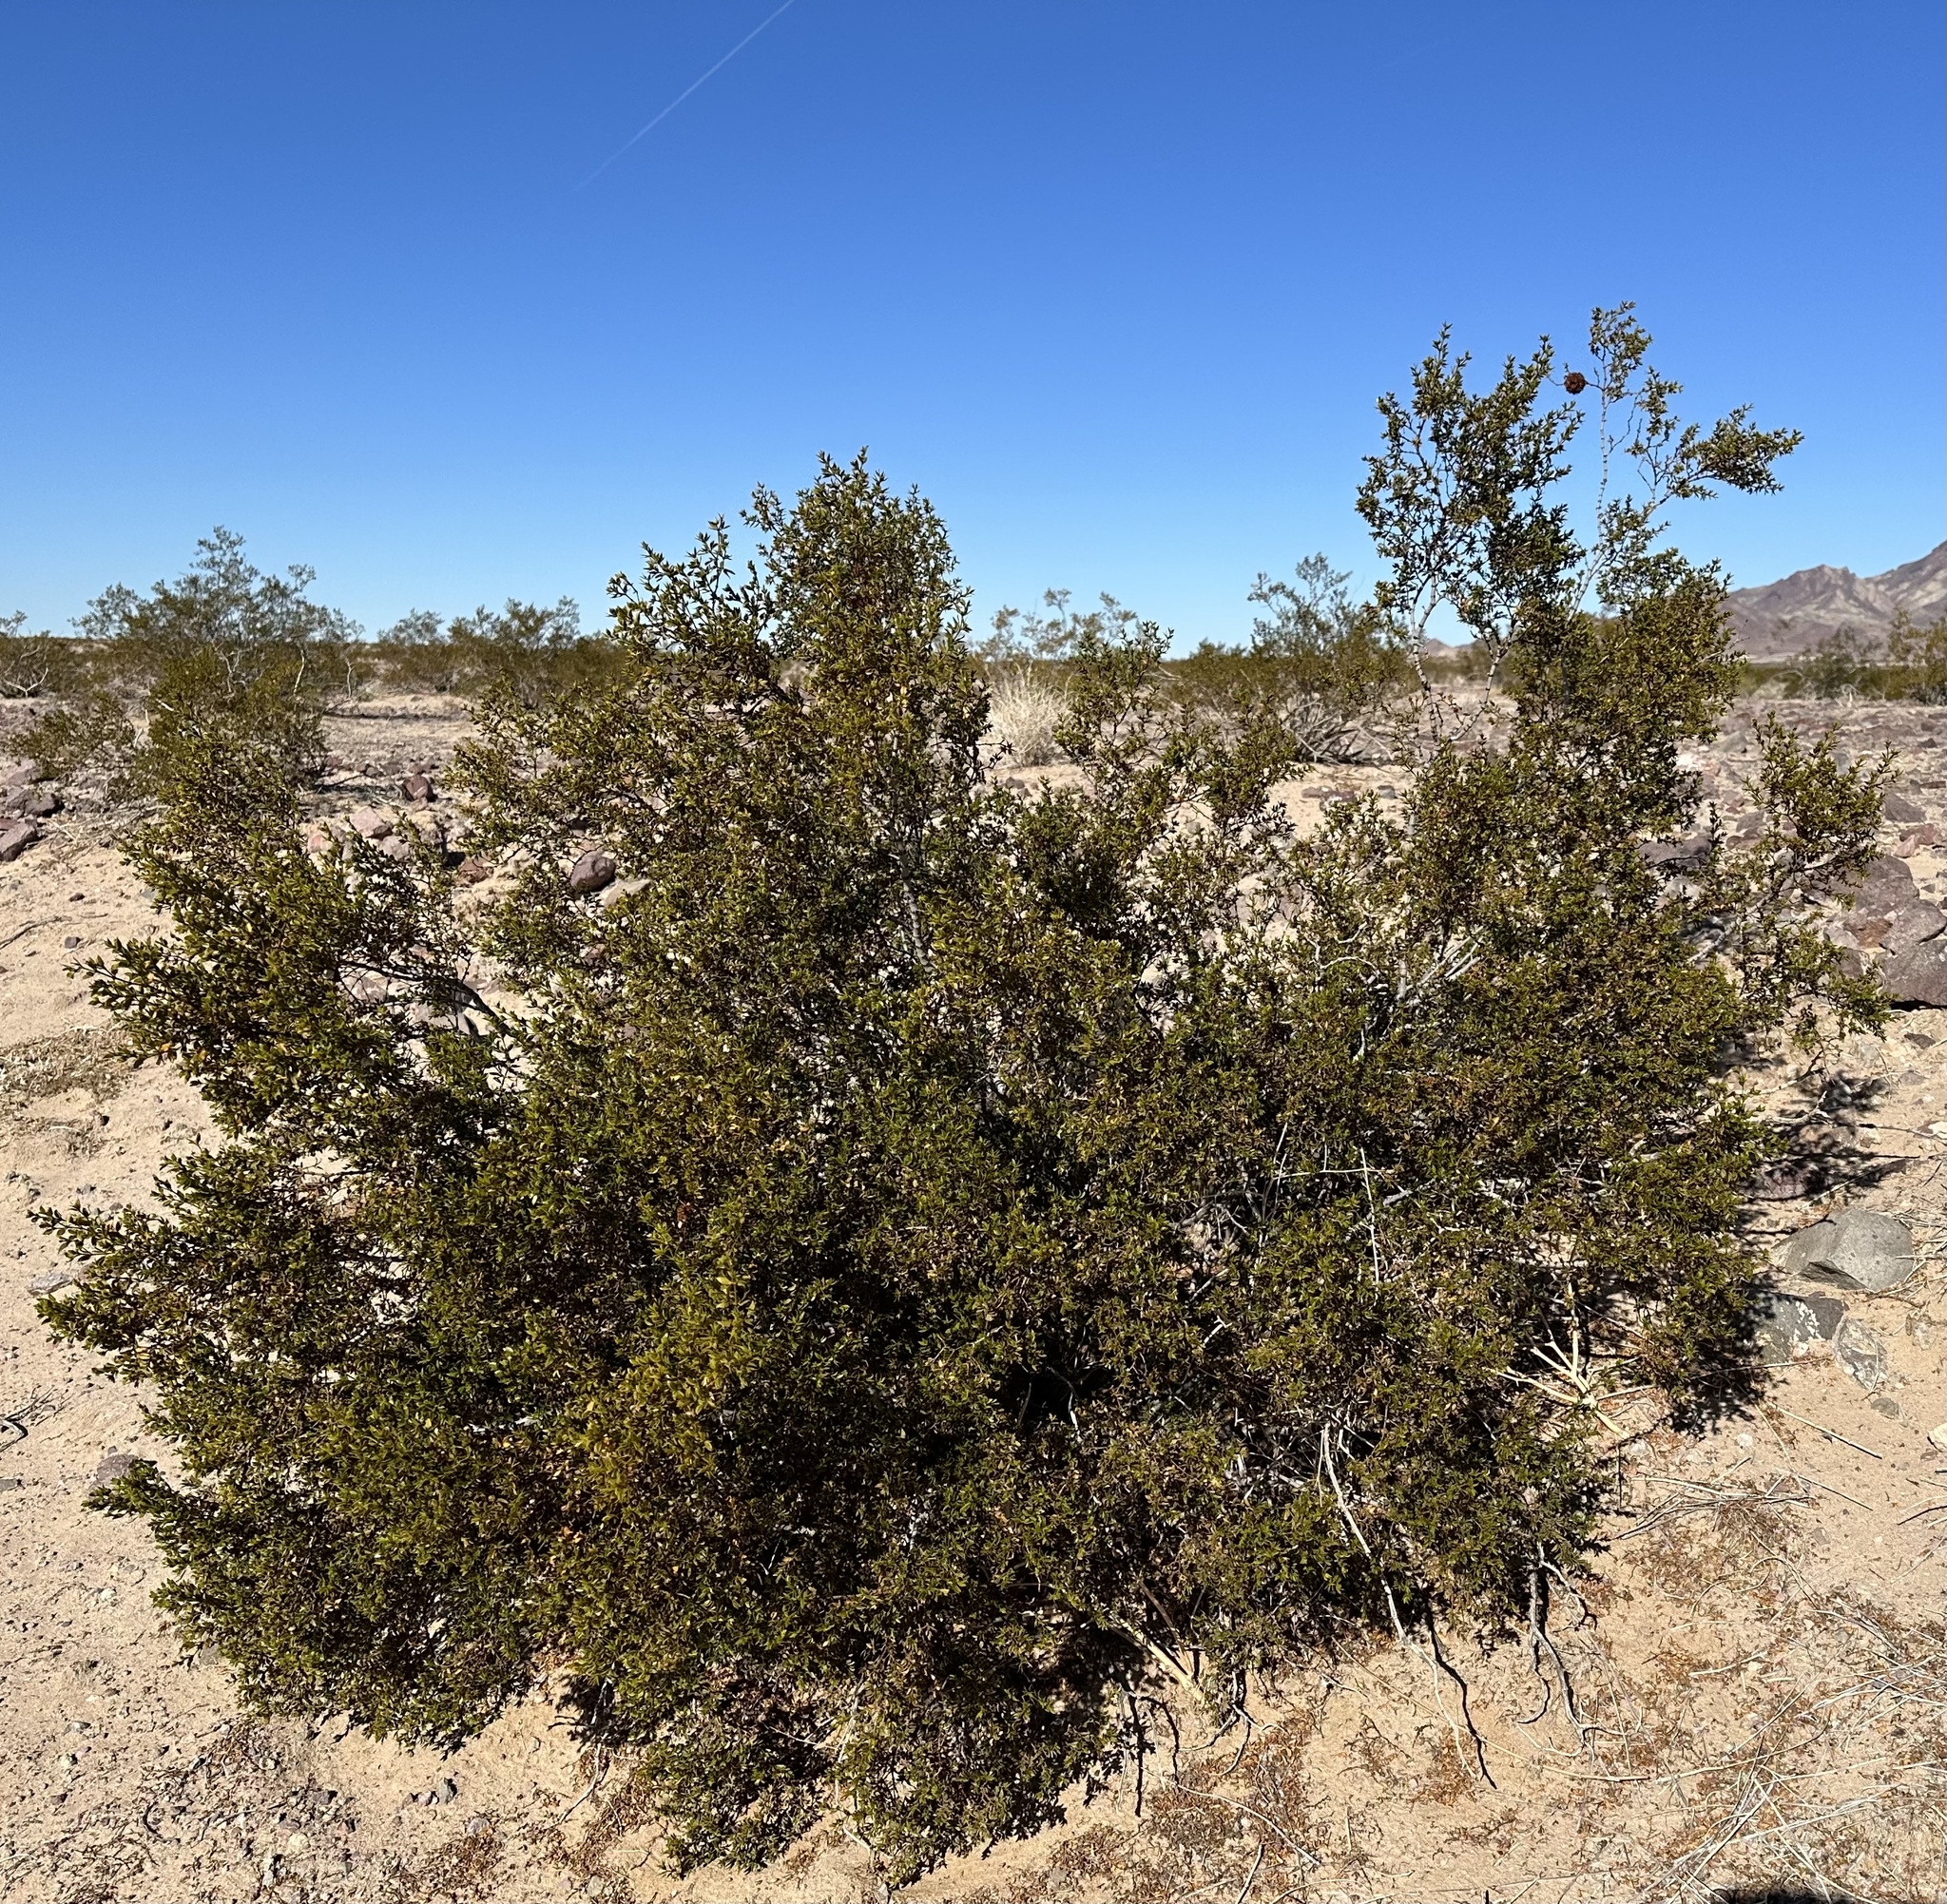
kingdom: Plantae
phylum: Tracheophyta
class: Magnoliopsida
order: Zygophyllales
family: Zygophyllaceae
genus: Larrea
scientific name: Larrea tridentata
